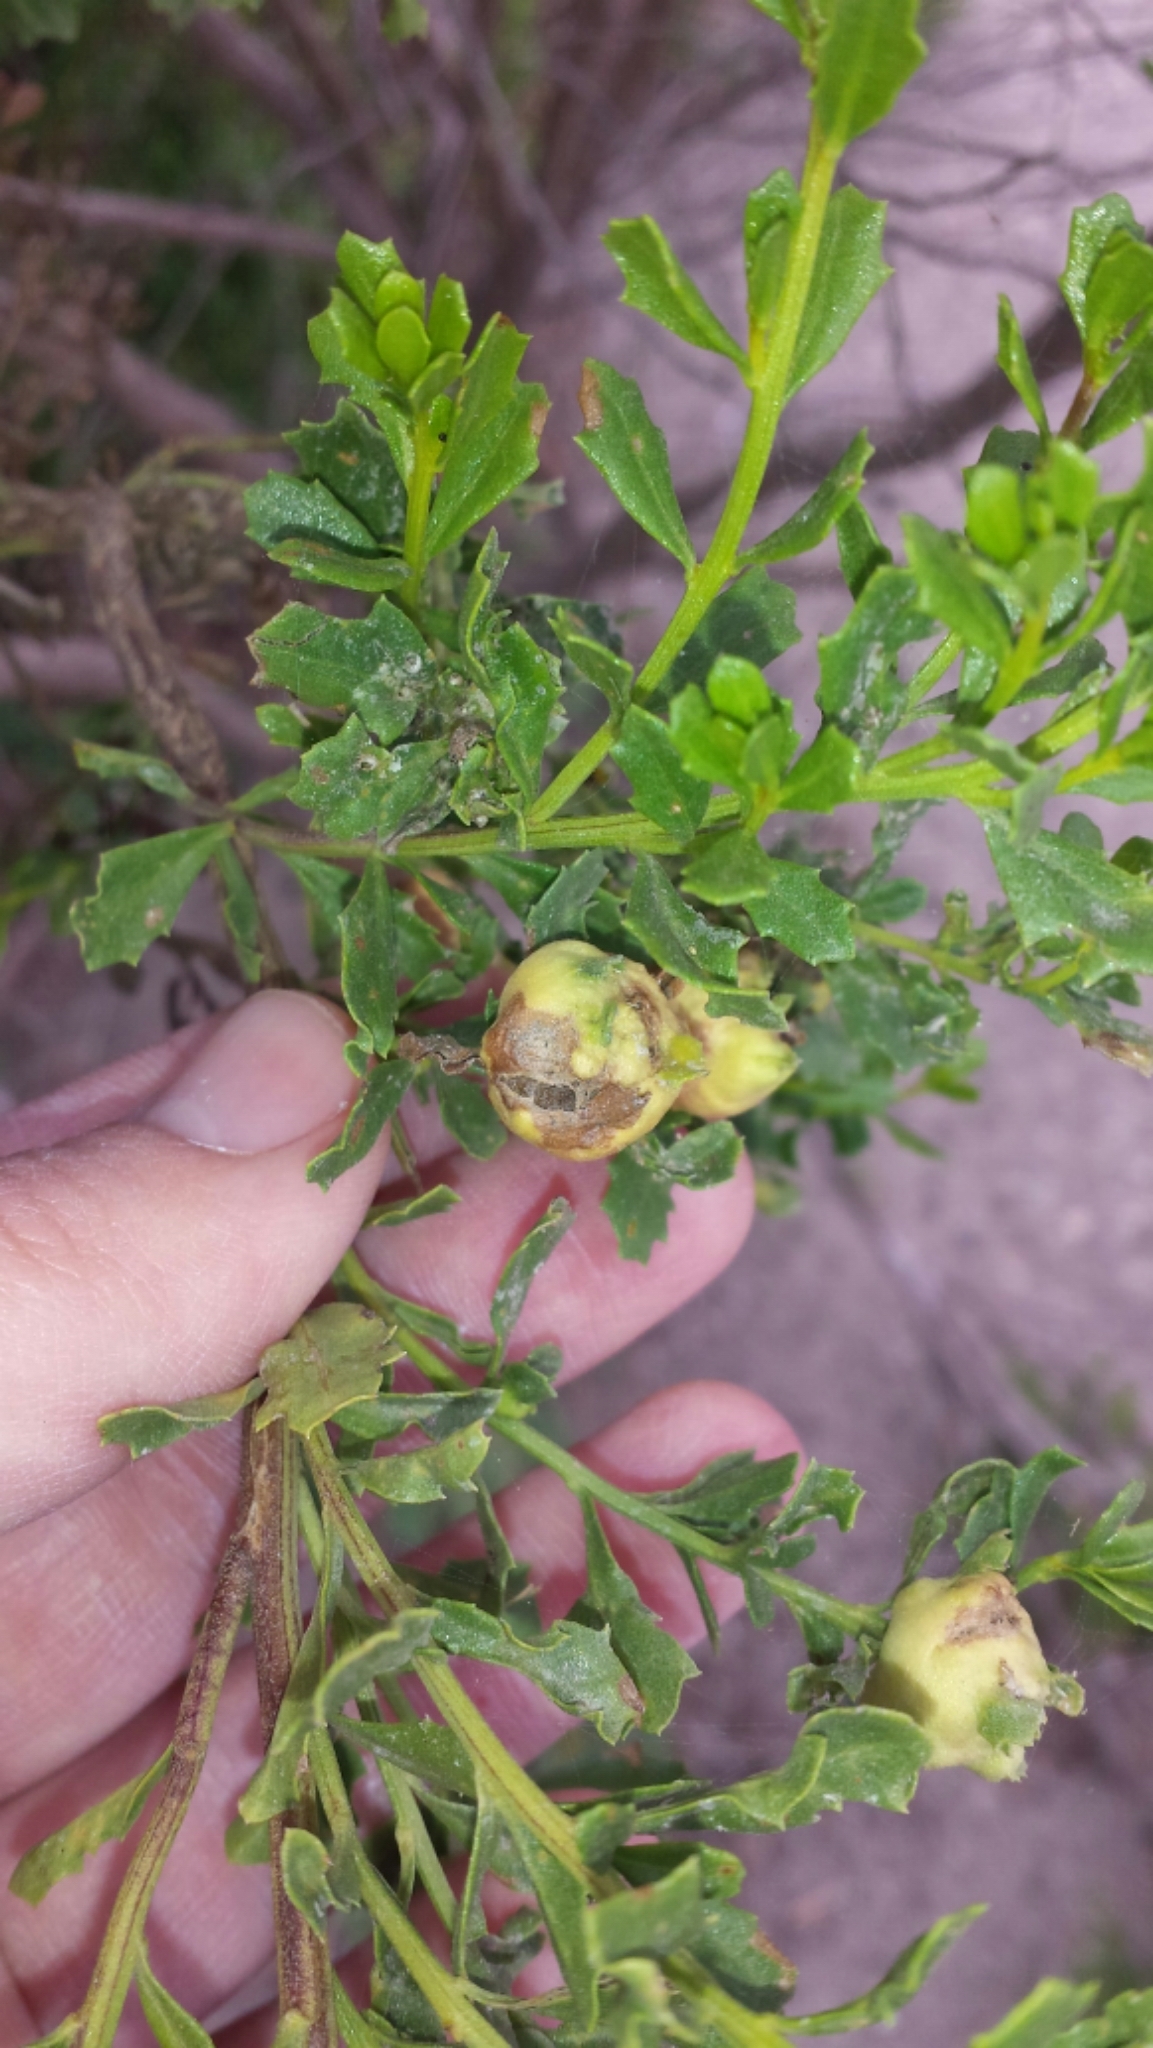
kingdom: Animalia
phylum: Arthropoda
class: Insecta
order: Diptera
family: Cecidomyiidae
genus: Rhopalomyia
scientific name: Rhopalomyia californica
